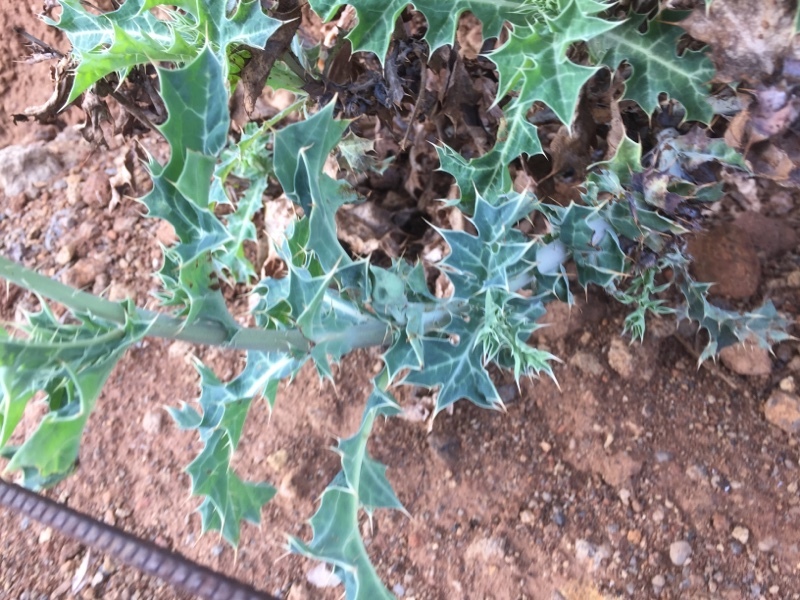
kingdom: Plantae
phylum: Tracheophyta
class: Magnoliopsida
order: Ranunculales
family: Papaveraceae
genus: Argemone
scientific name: Argemone mexicana
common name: Mexican poppy
